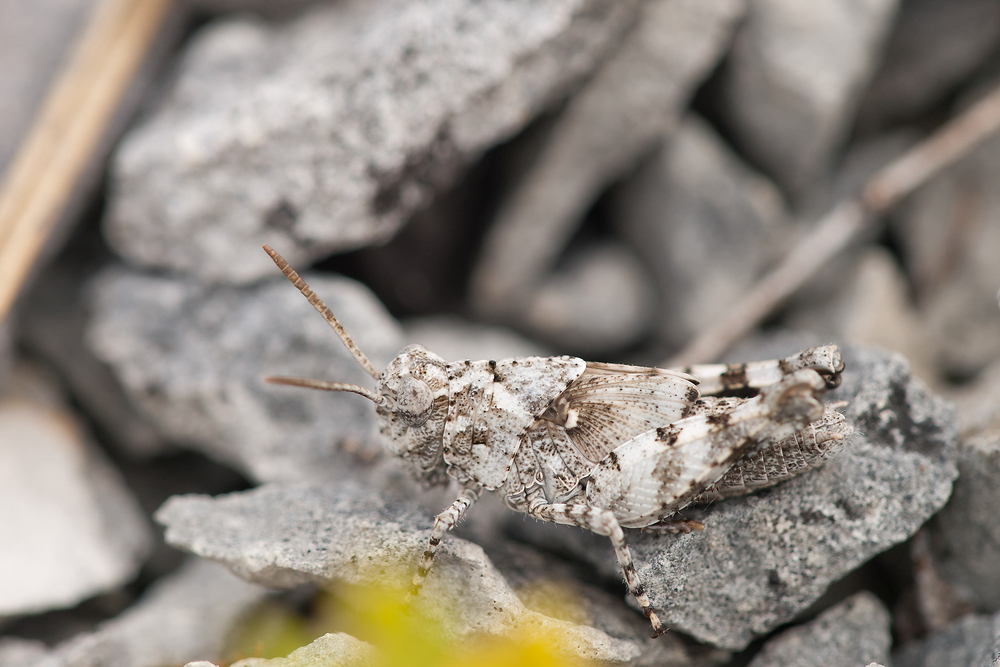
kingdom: Animalia
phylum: Arthropoda
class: Insecta
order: Orthoptera
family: Acrididae
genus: Oedipoda
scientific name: Oedipoda caerulescens
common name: Blue-winged grasshopper
